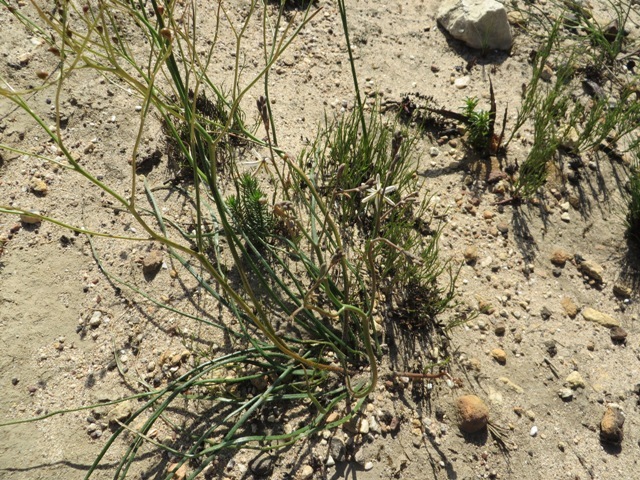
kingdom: Plantae
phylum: Tracheophyta
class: Liliopsida
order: Asparagales
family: Asphodelaceae
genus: Trachyandra
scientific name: Trachyandra revoluta
